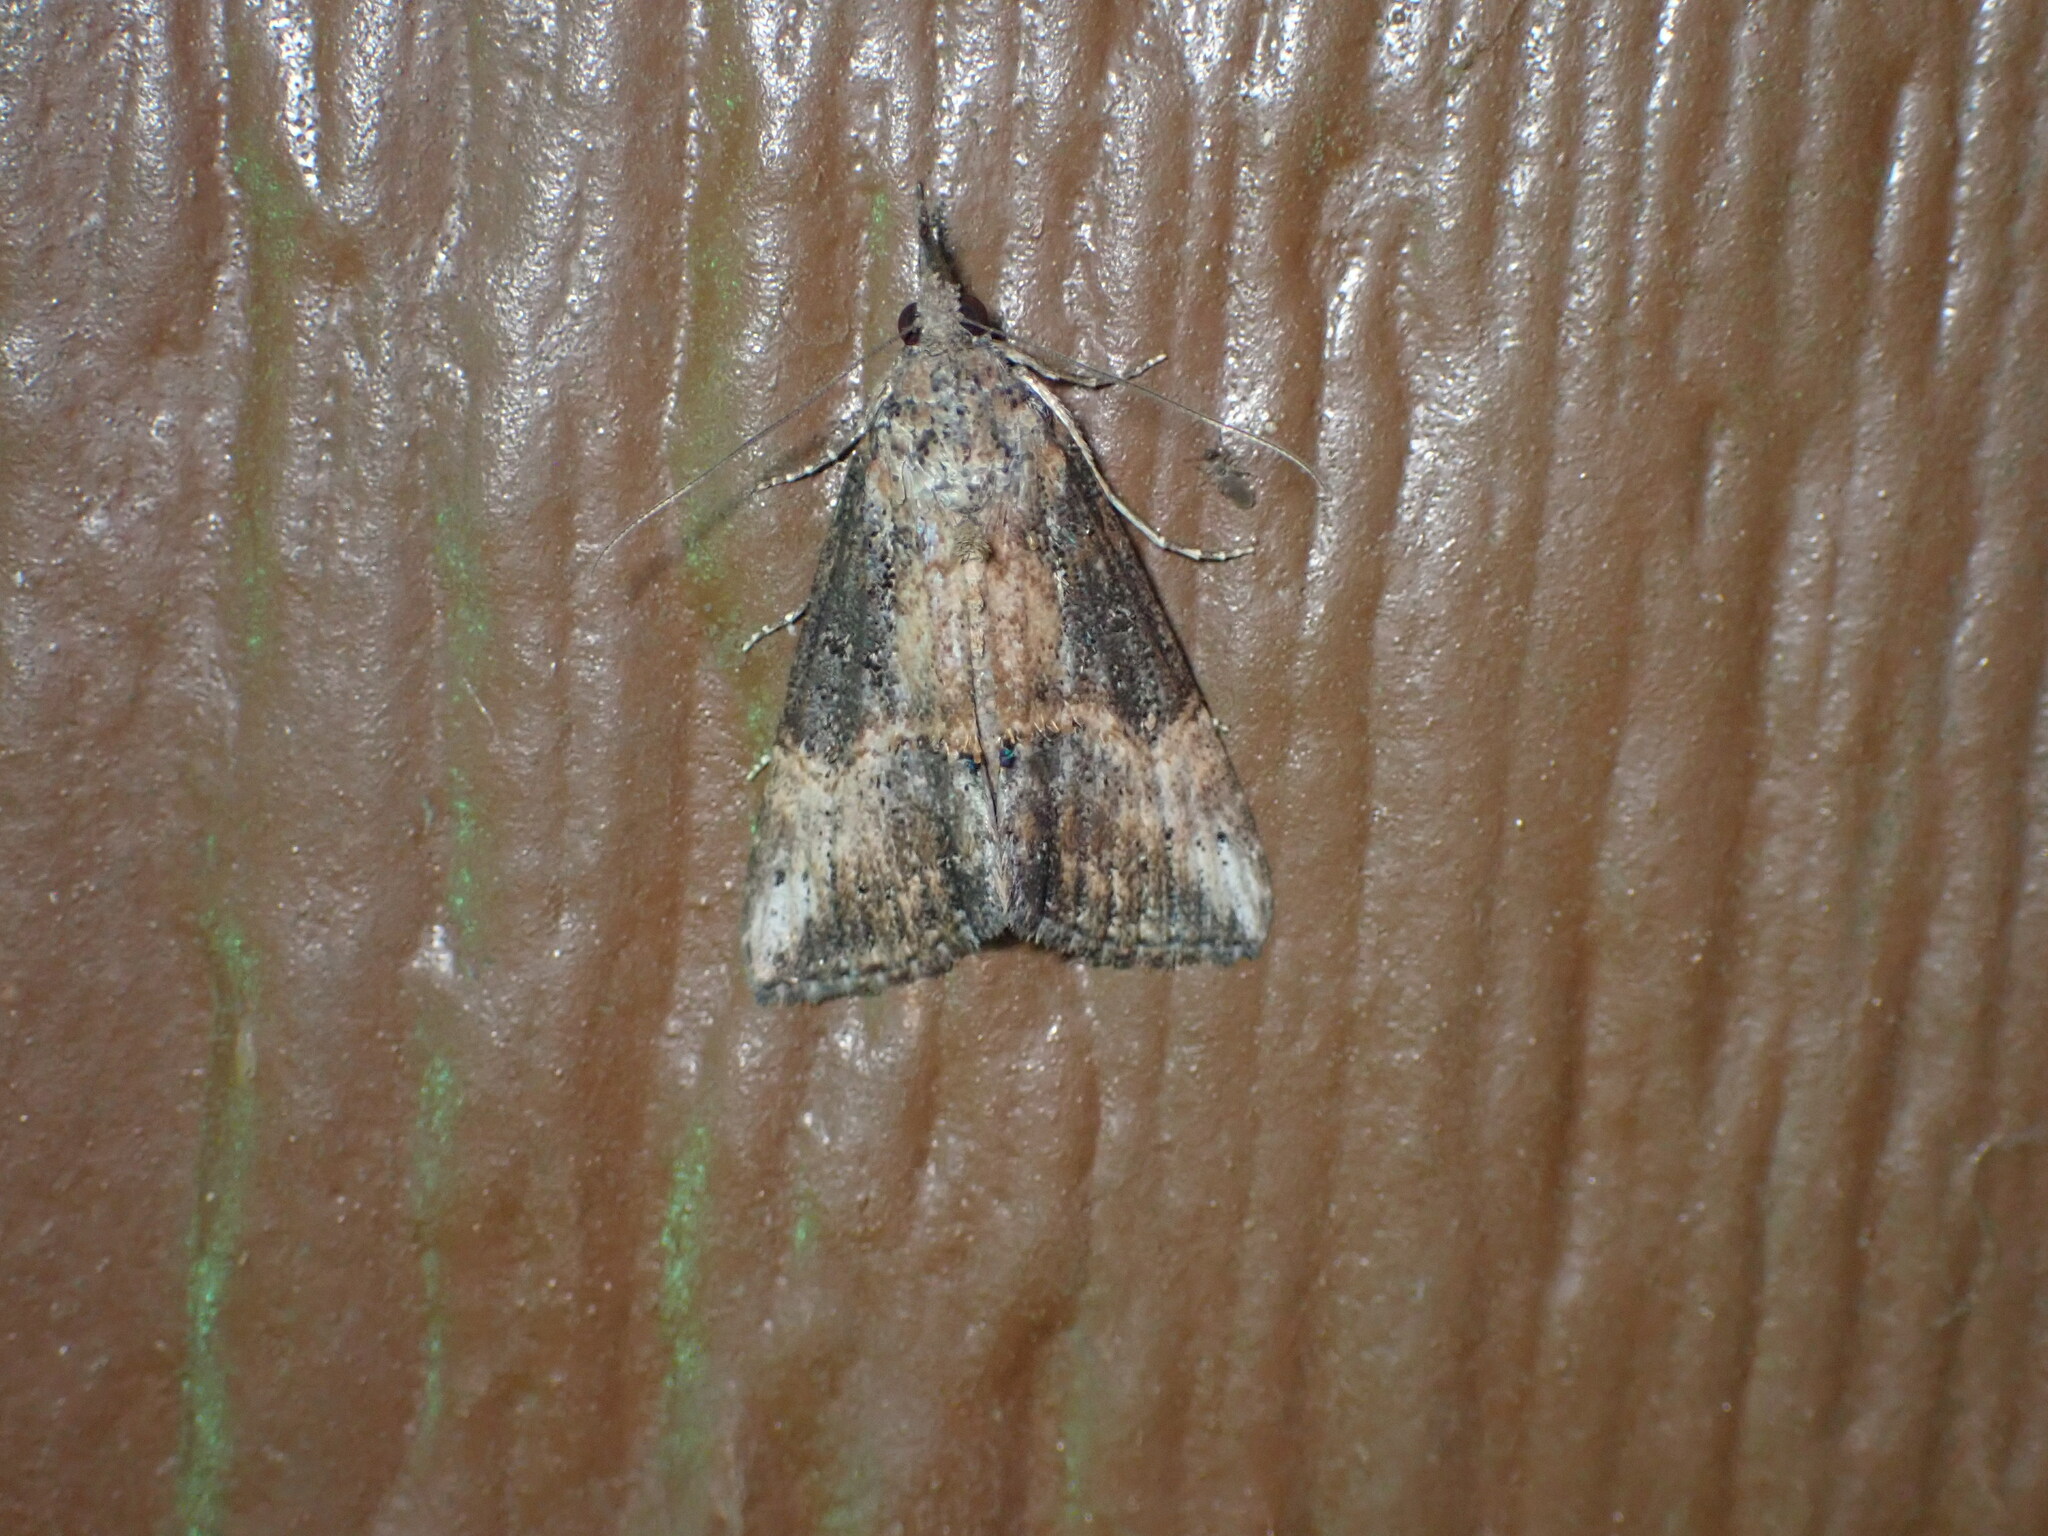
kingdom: Animalia
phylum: Arthropoda
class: Insecta
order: Lepidoptera
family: Erebidae
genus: Hypena
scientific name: Hypena scabra
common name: Green cloverworm
